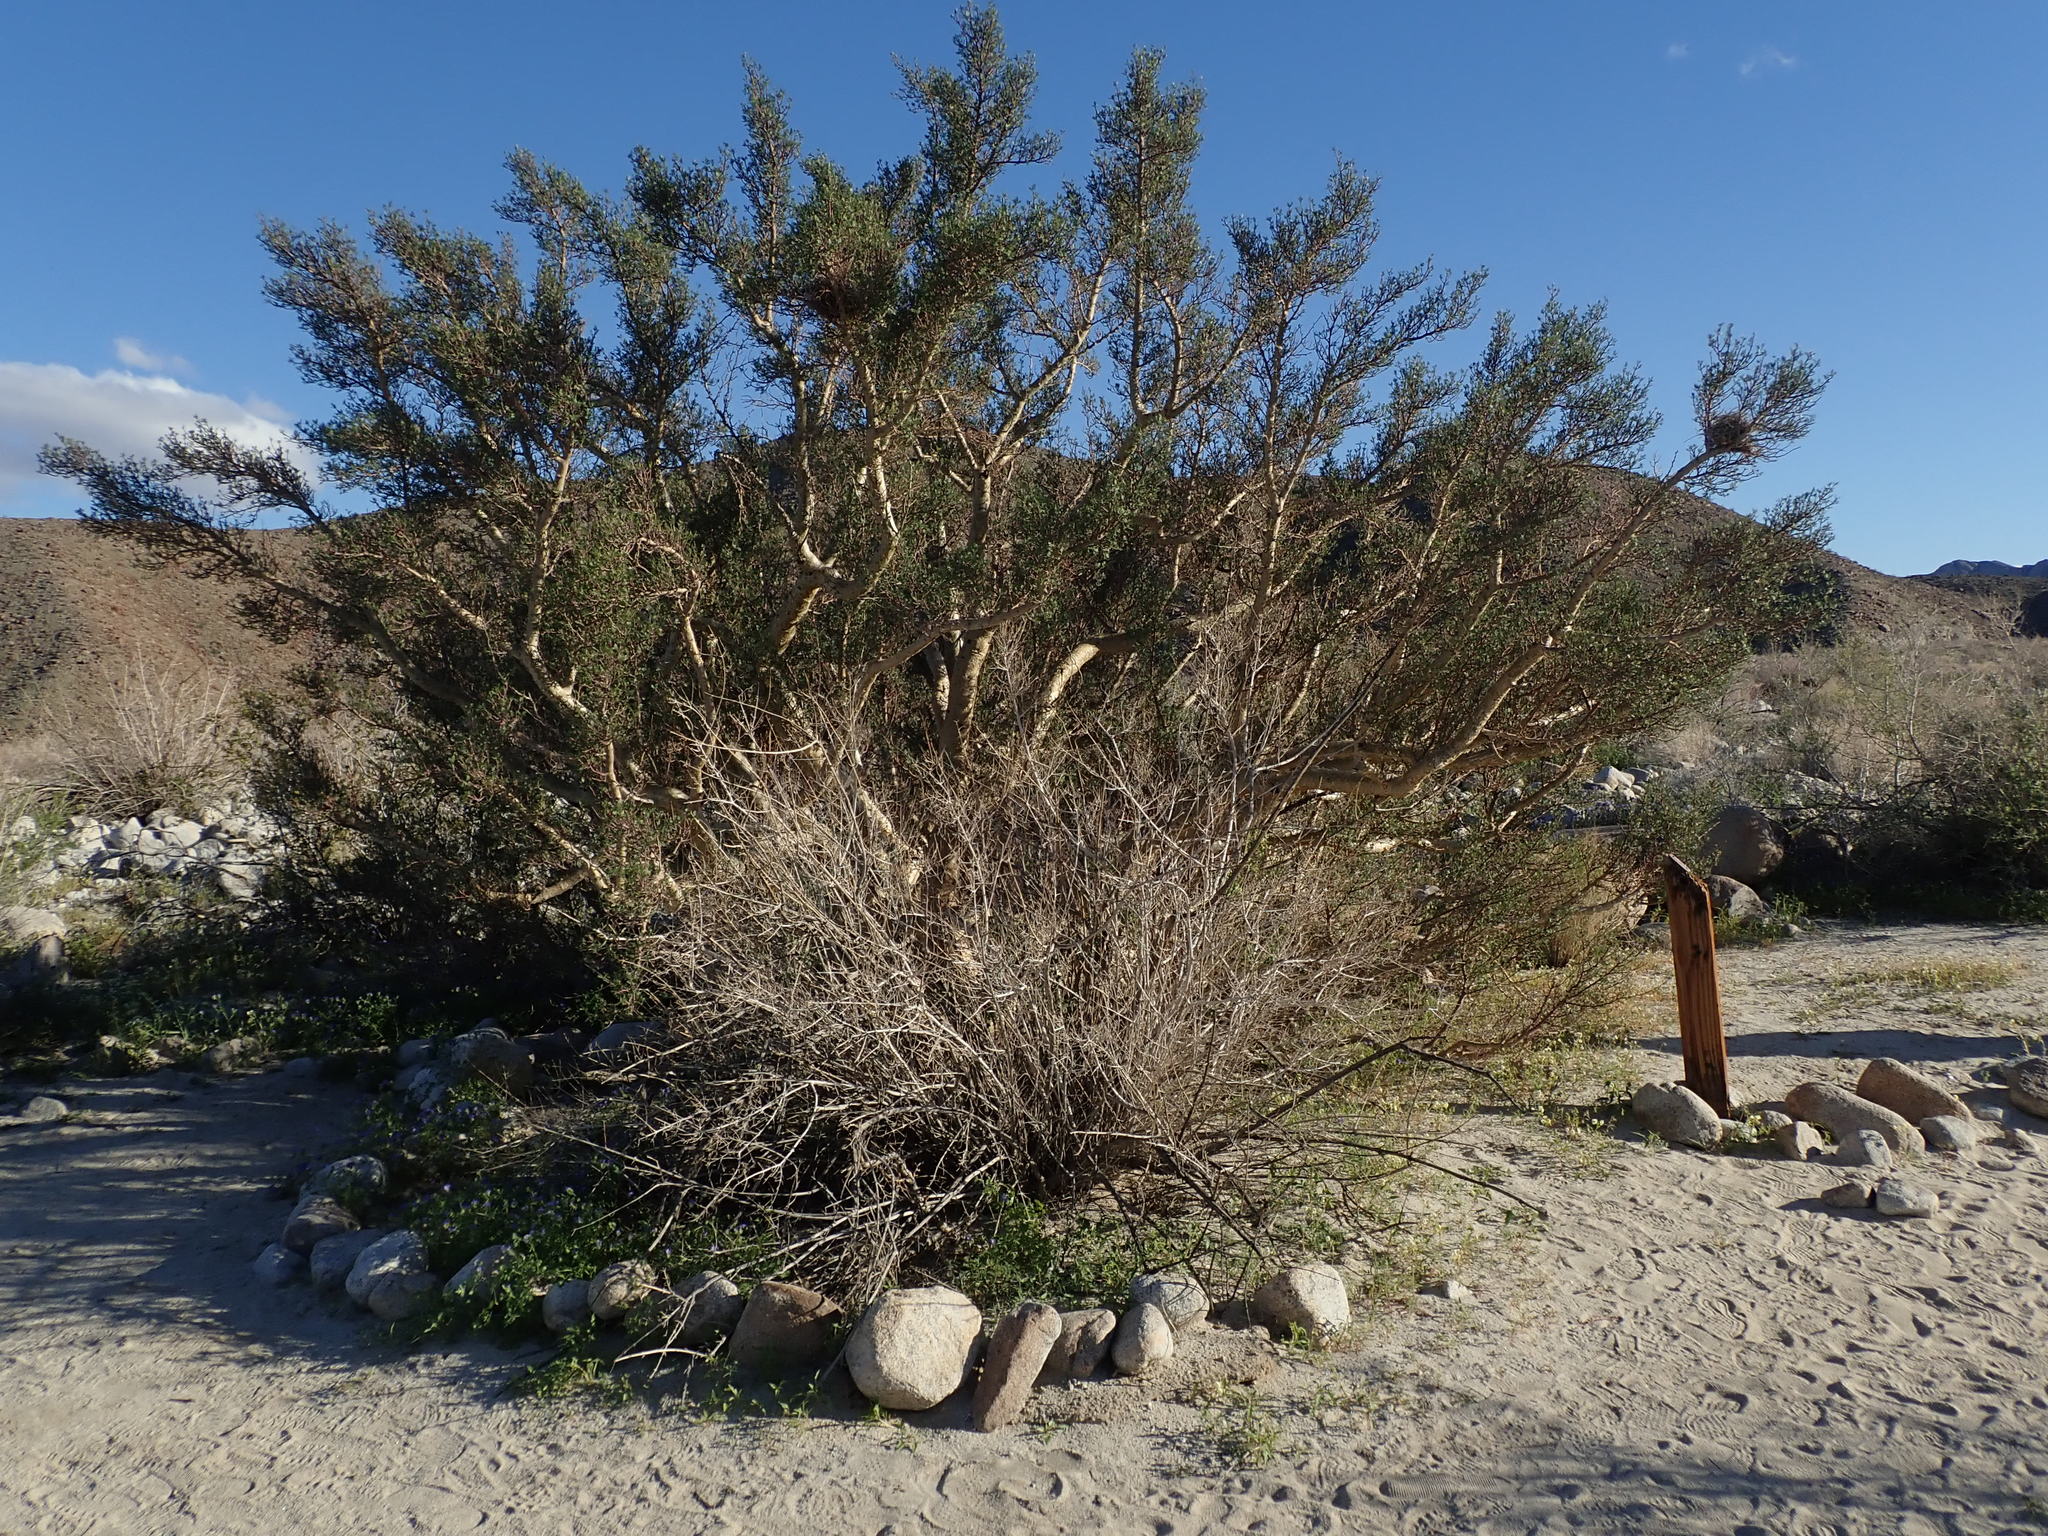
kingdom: Plantae
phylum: Tracheophyta
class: Magnoliopsida
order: Sapindales
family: Burseraceae
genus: Bursera
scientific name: Bursera microphylla
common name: Elephant tree
